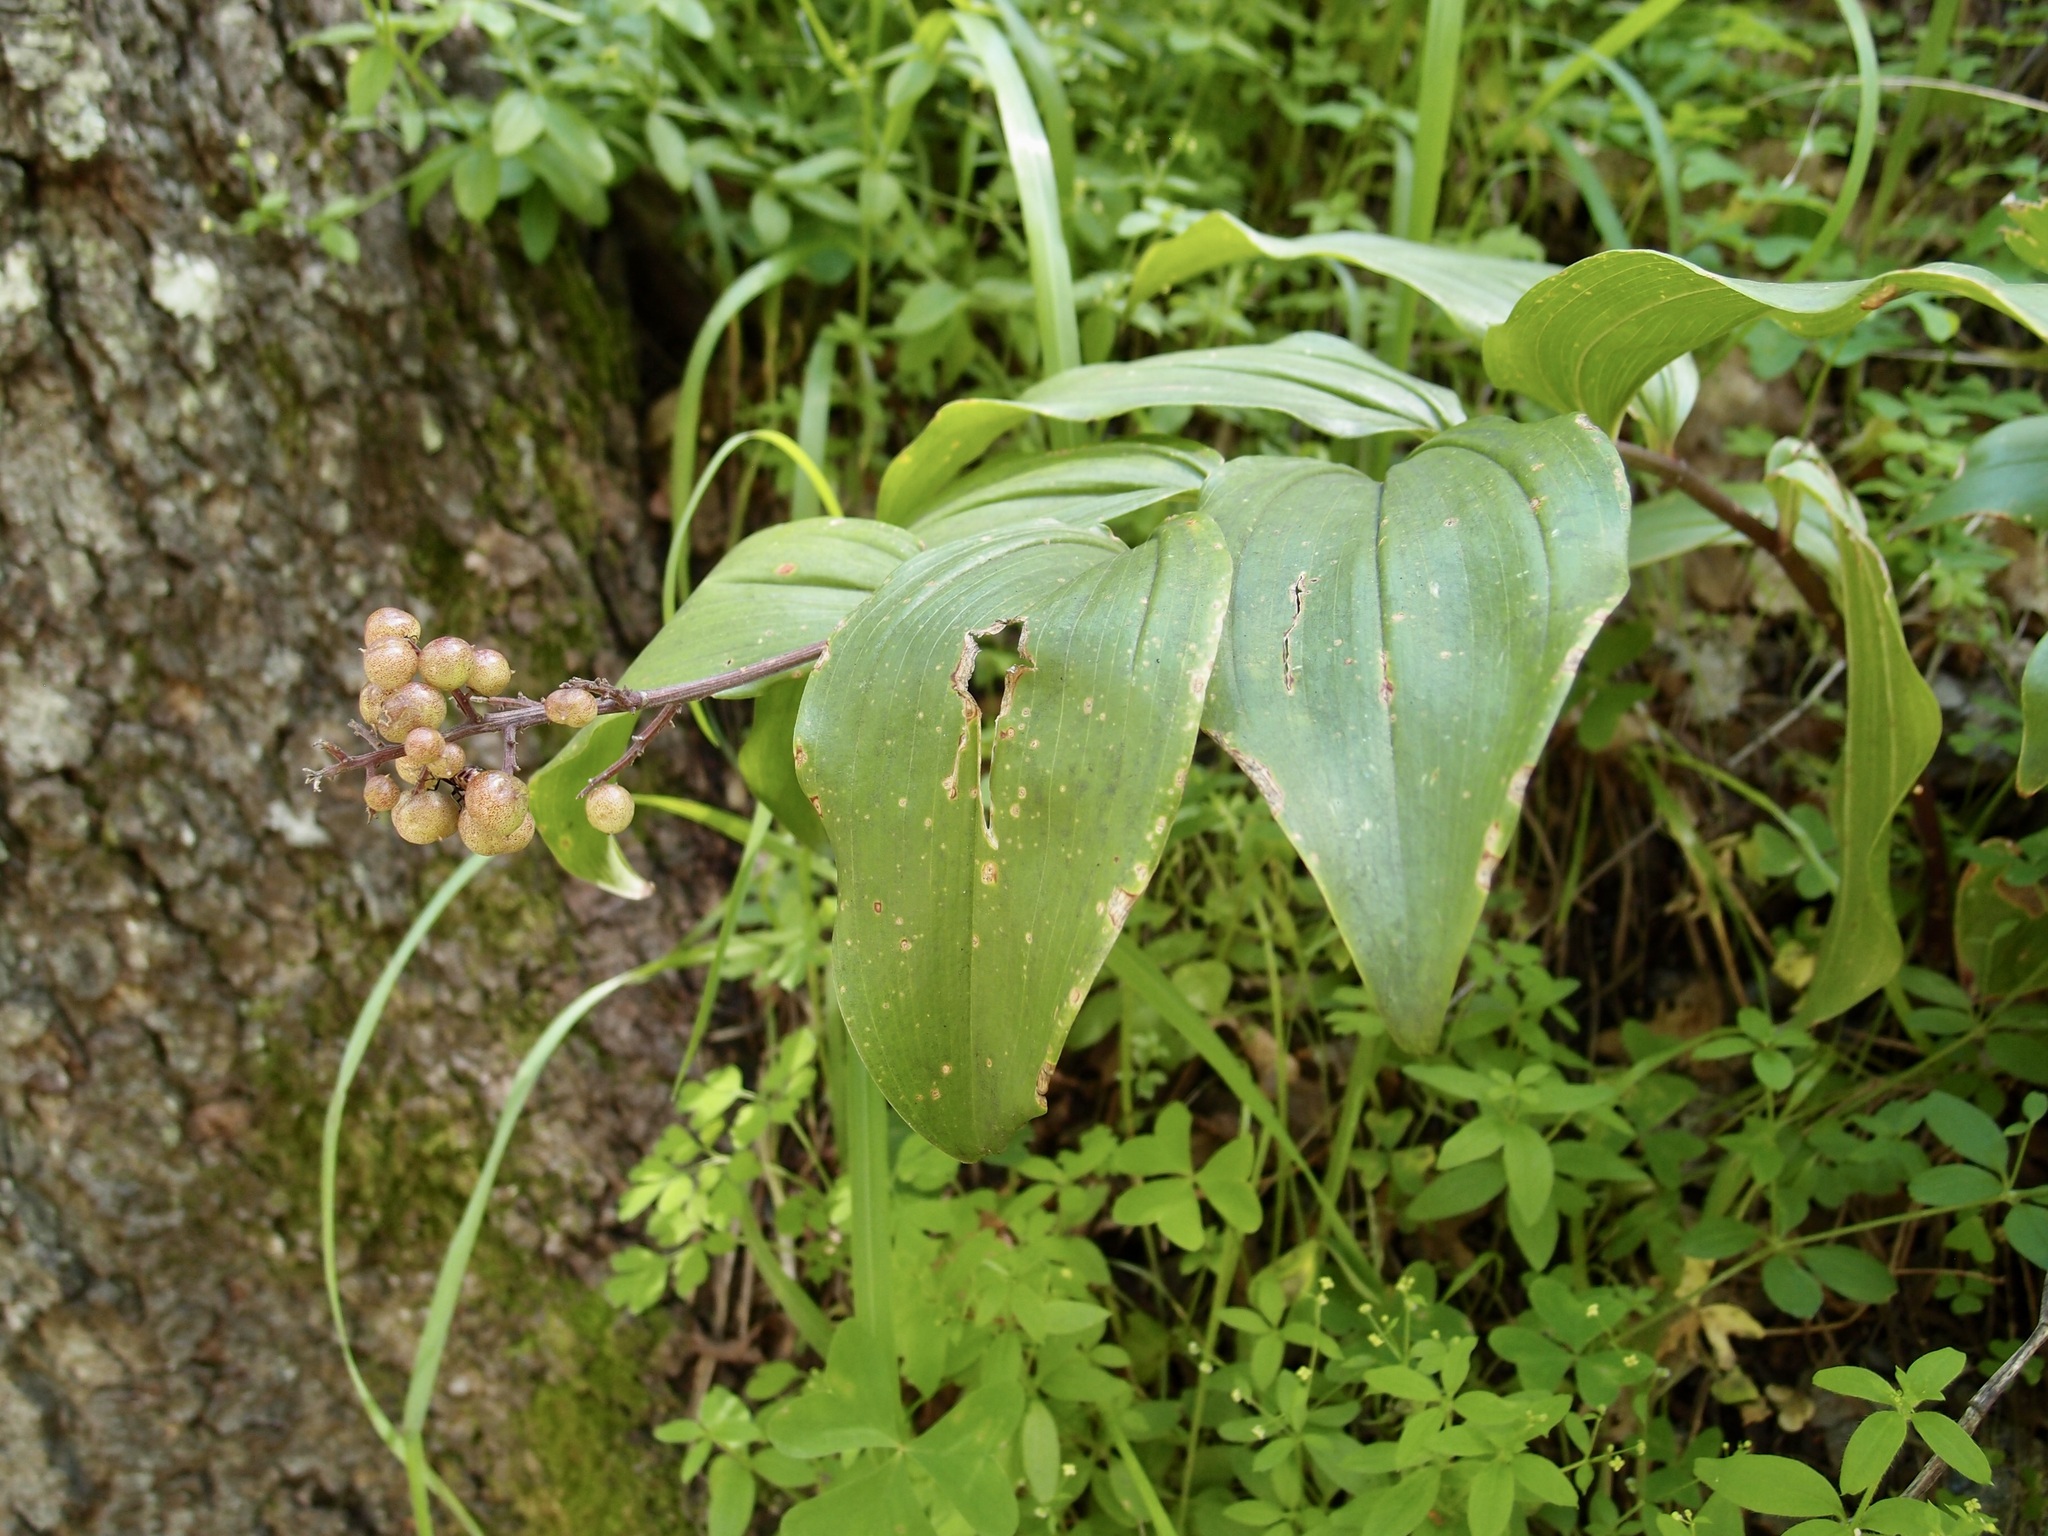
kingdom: Plantae
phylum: Tracheophyta
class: Liliopsida
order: Asparagales
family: Asparagaceae
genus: Maianthemum
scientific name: Maianthemum racemosum
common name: False spikenard
